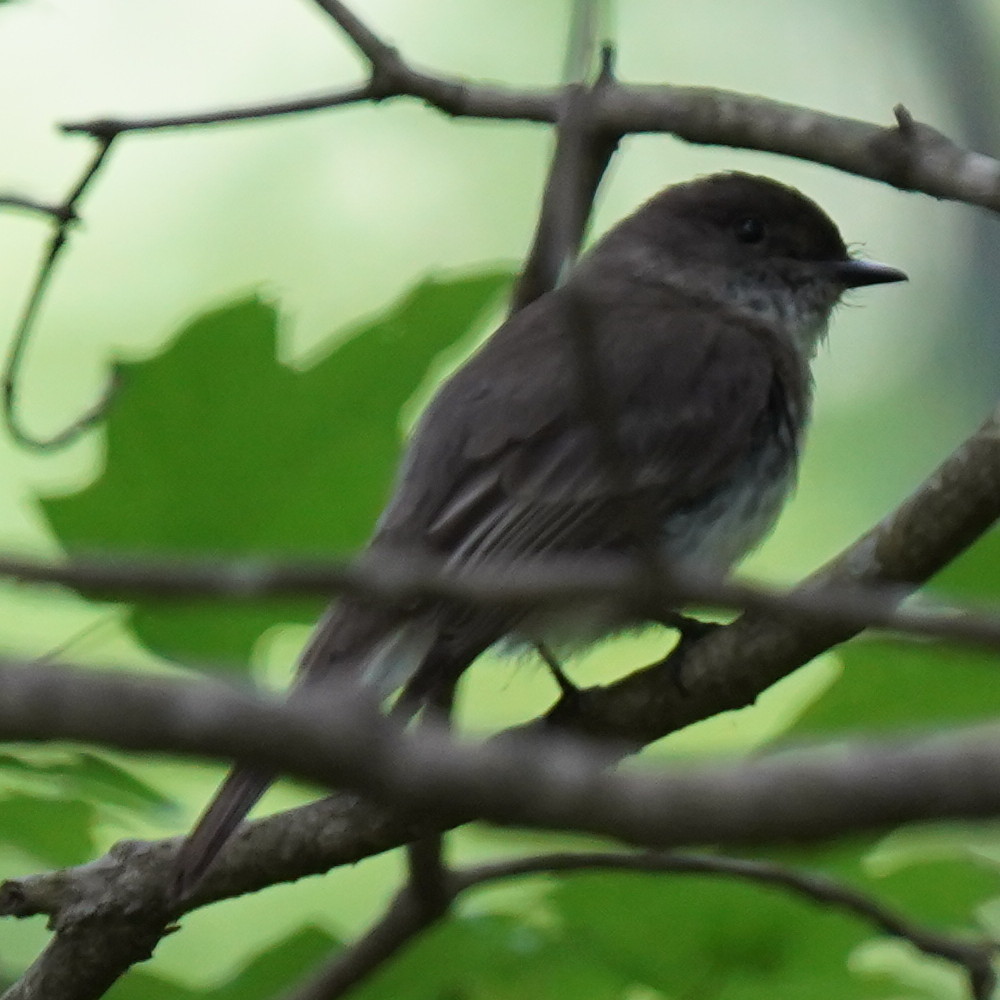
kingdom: Animalia
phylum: Chordata
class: Aves
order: Passeriformes
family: Tyrannidae
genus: Sayornis
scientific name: Sayornis phoebe
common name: Eastern phoebe
